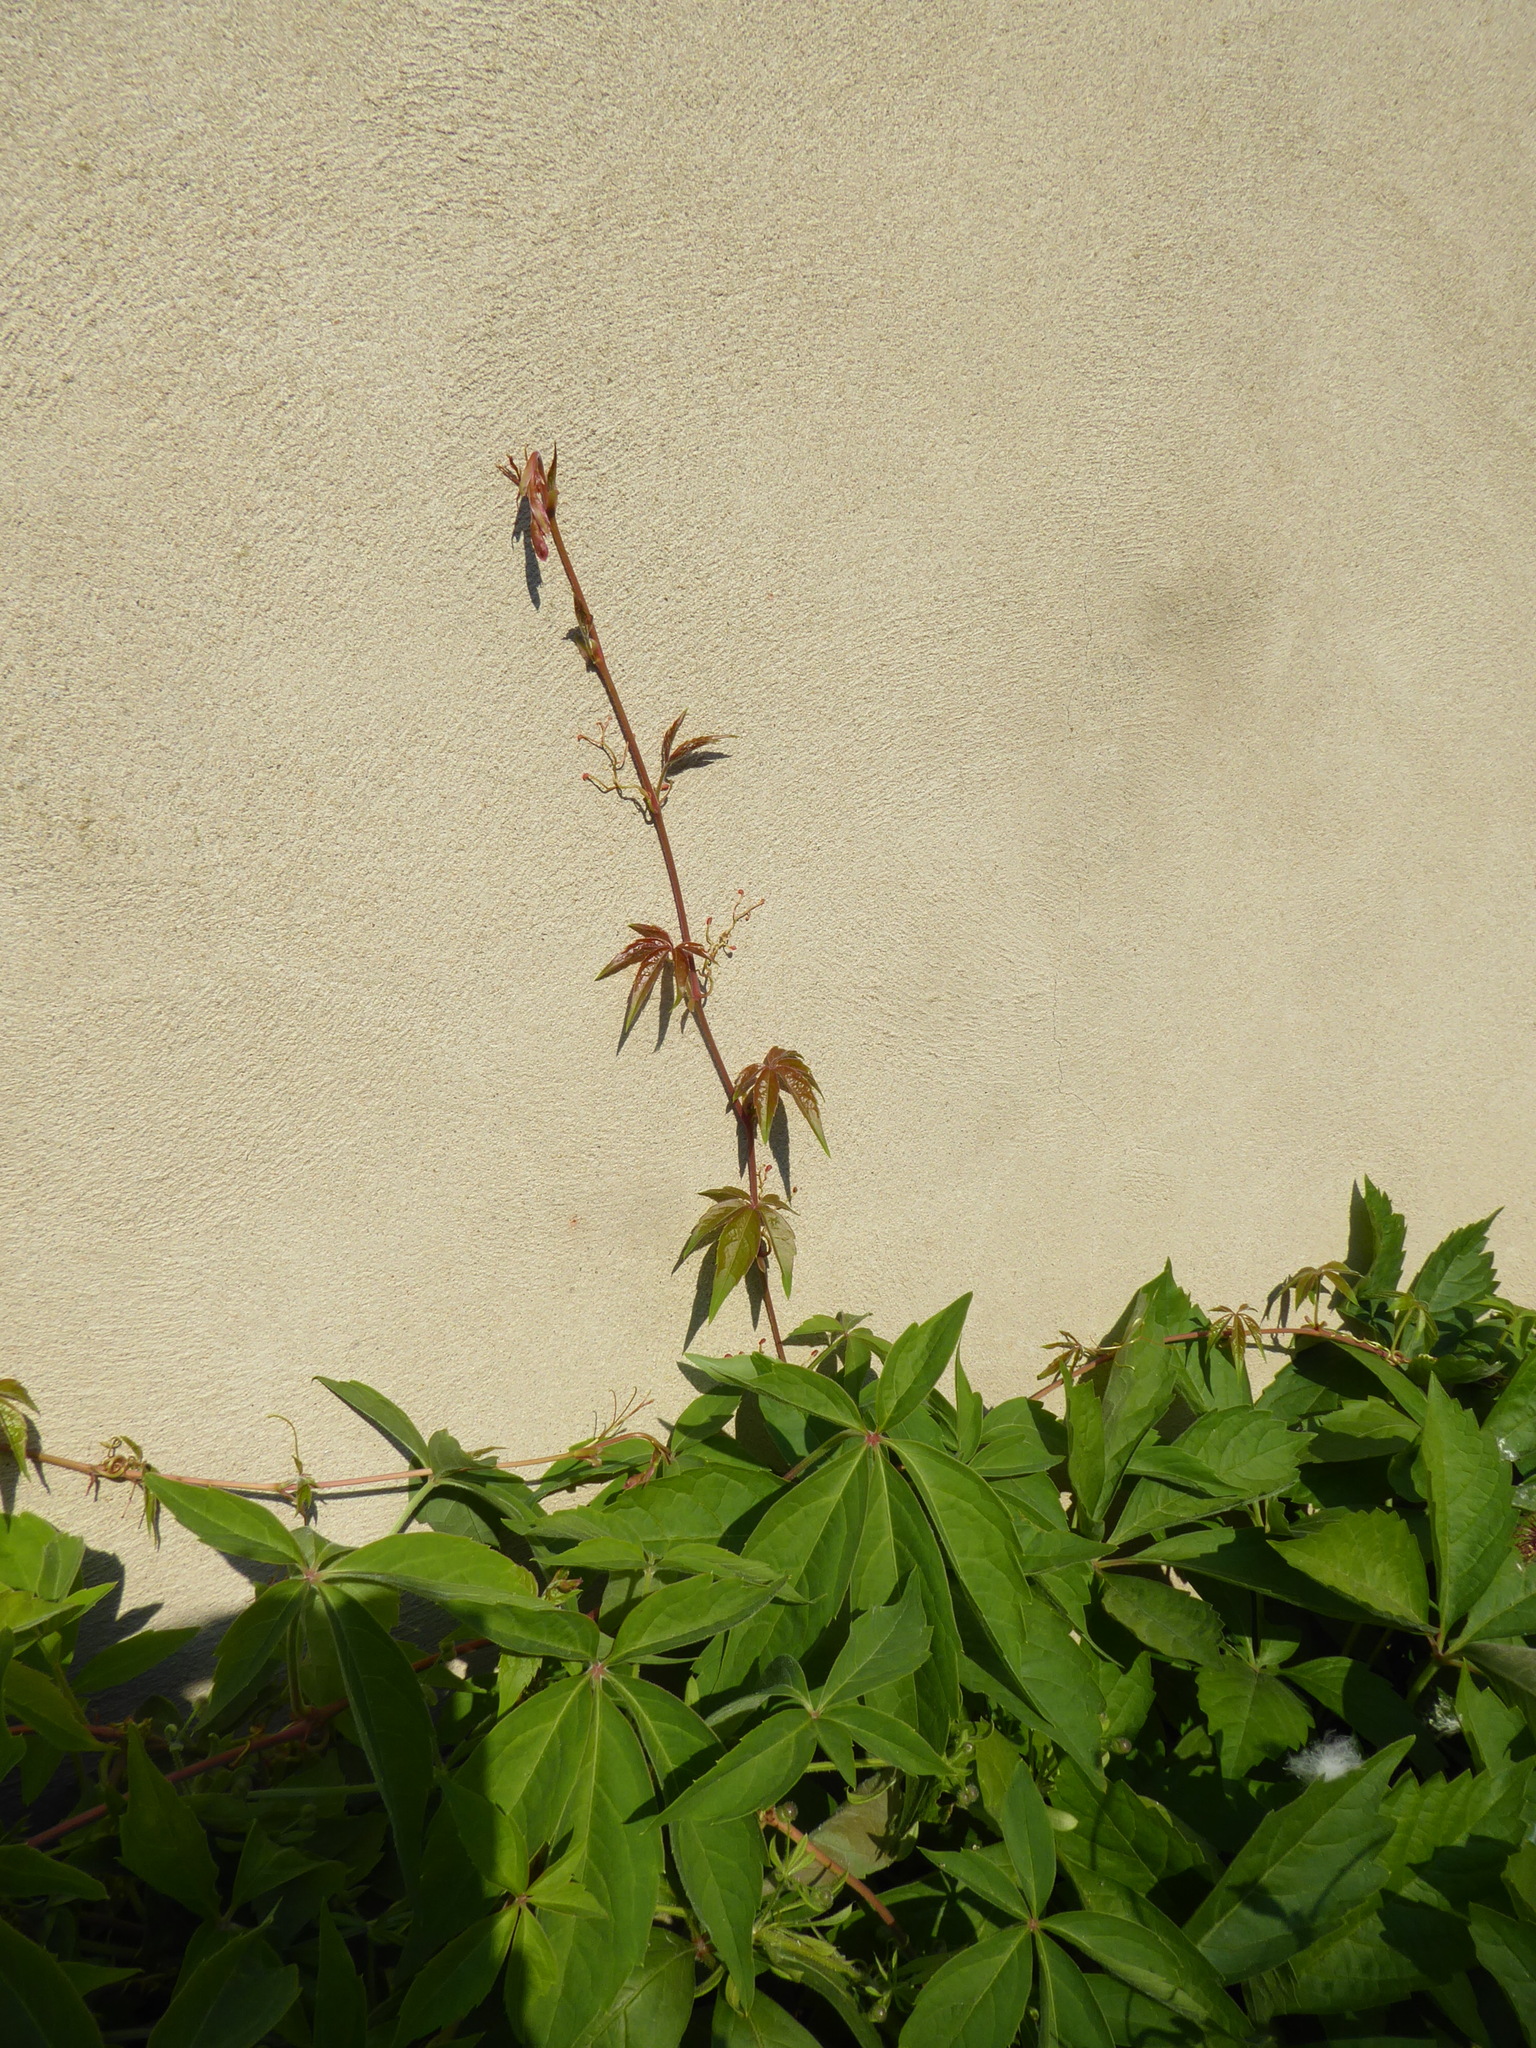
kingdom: Plantae
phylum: Tracheophyta
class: Magnoliopsida
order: Vitales
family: Vitaceae
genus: Parthenocissus
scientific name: Parthenocissus quinquefolia
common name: Virginia-creeper
